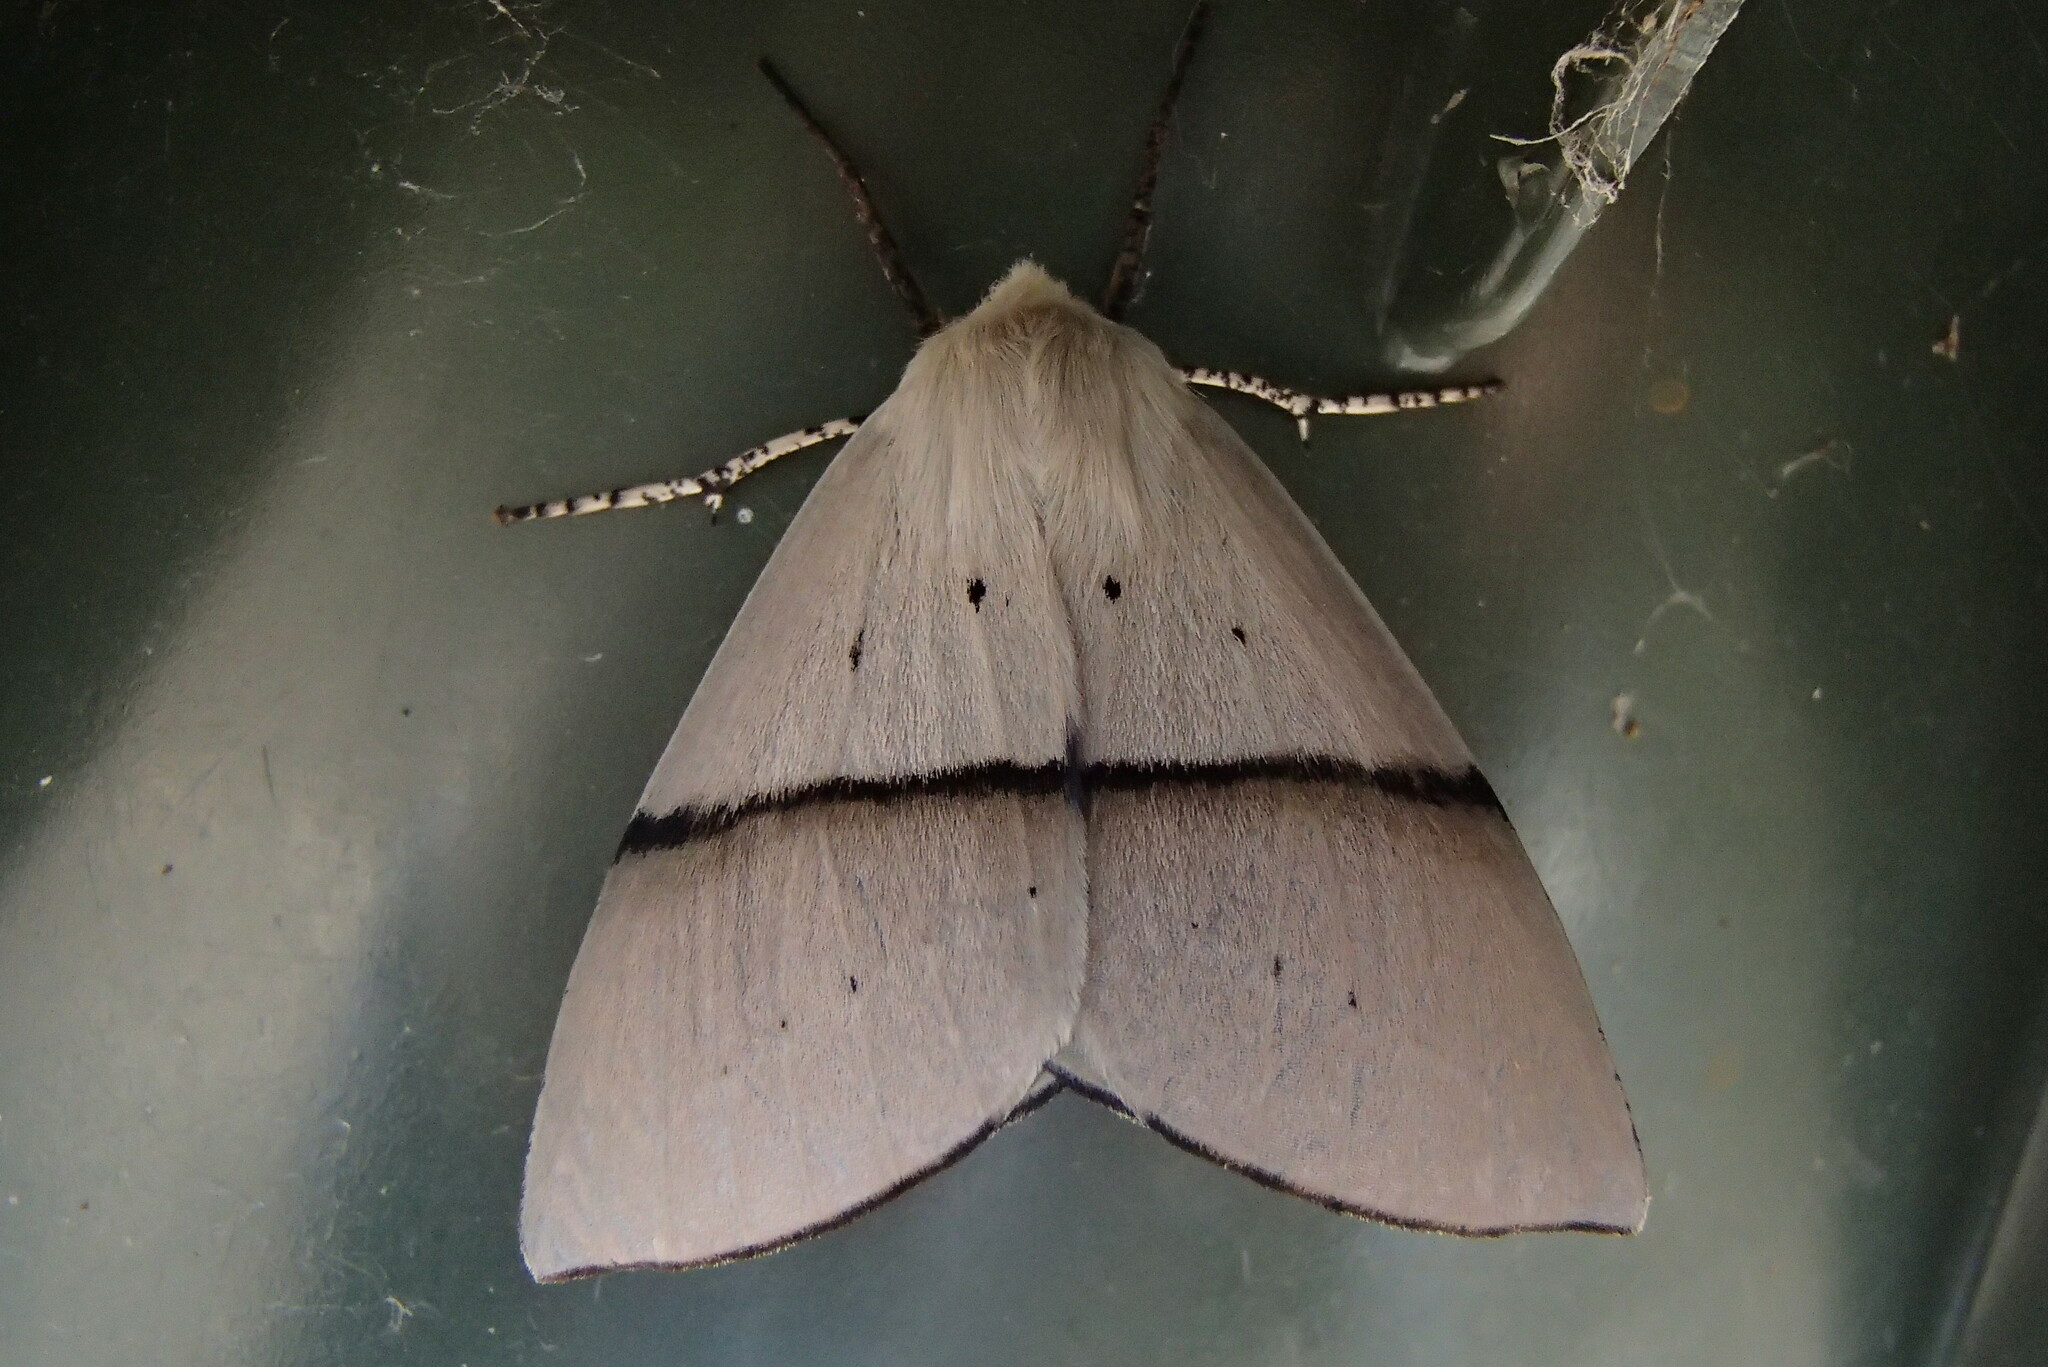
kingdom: Animalia
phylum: Arthropoda
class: Insecta
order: Lepidoptera
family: Geometridae
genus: Gastrophora
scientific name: Gastrophora henricaria
